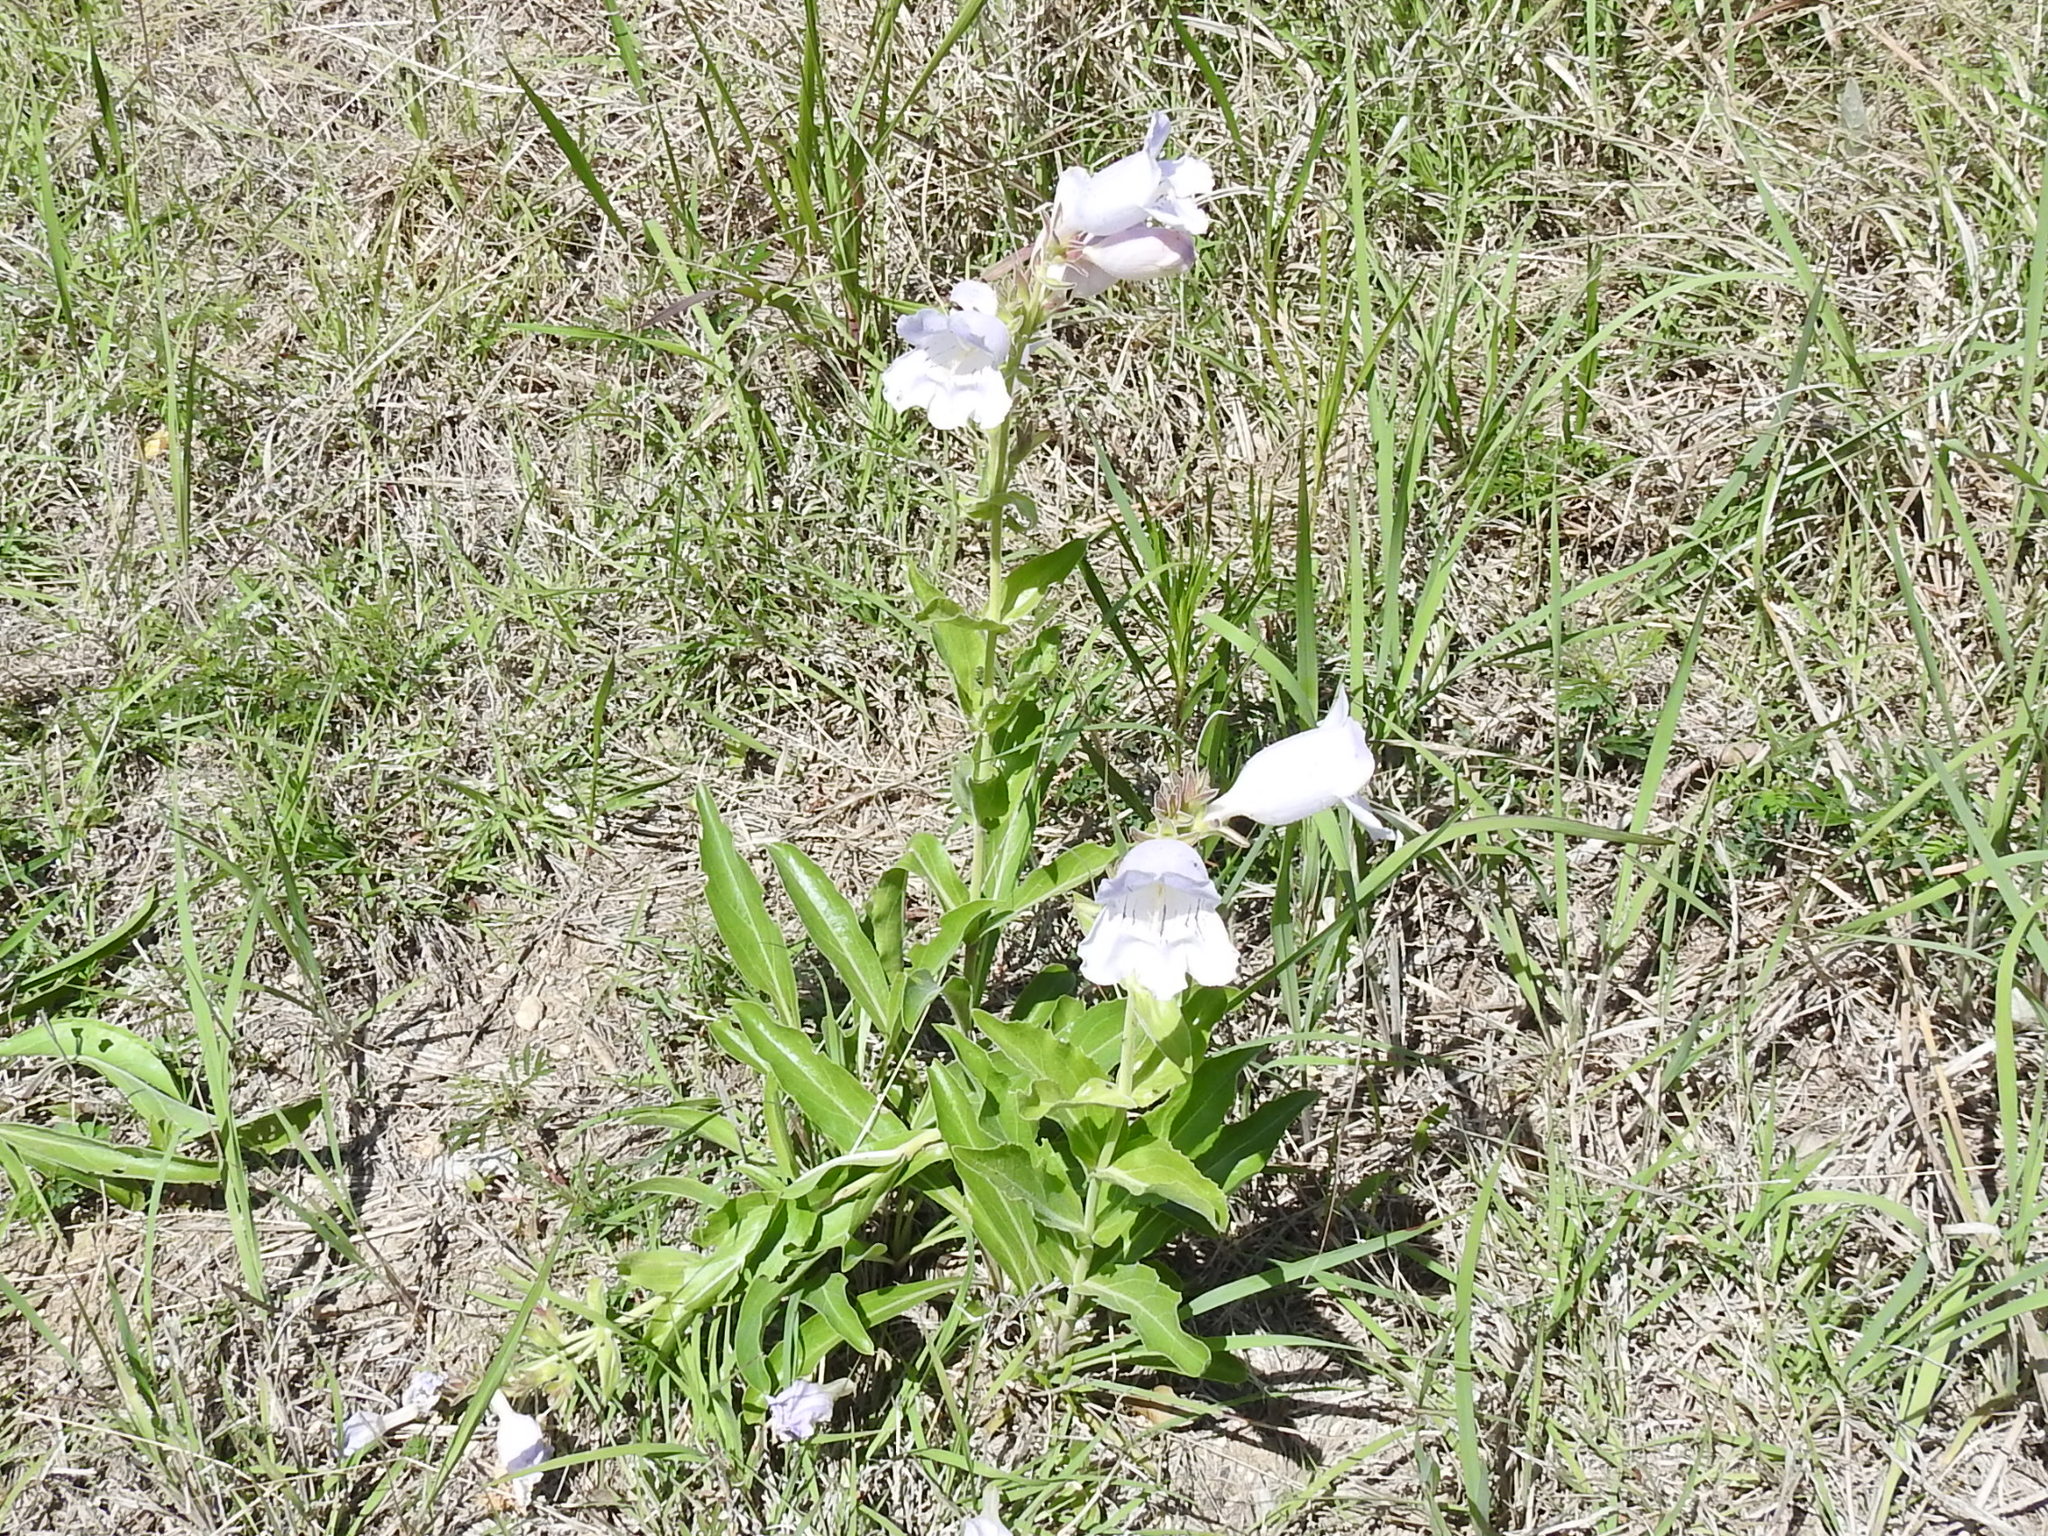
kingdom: Plantae
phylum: Tracheophyta
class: Magnoliopsida
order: Lamiales
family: Plantaginaceae
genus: Penstemon
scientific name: Penstemon cobaea
